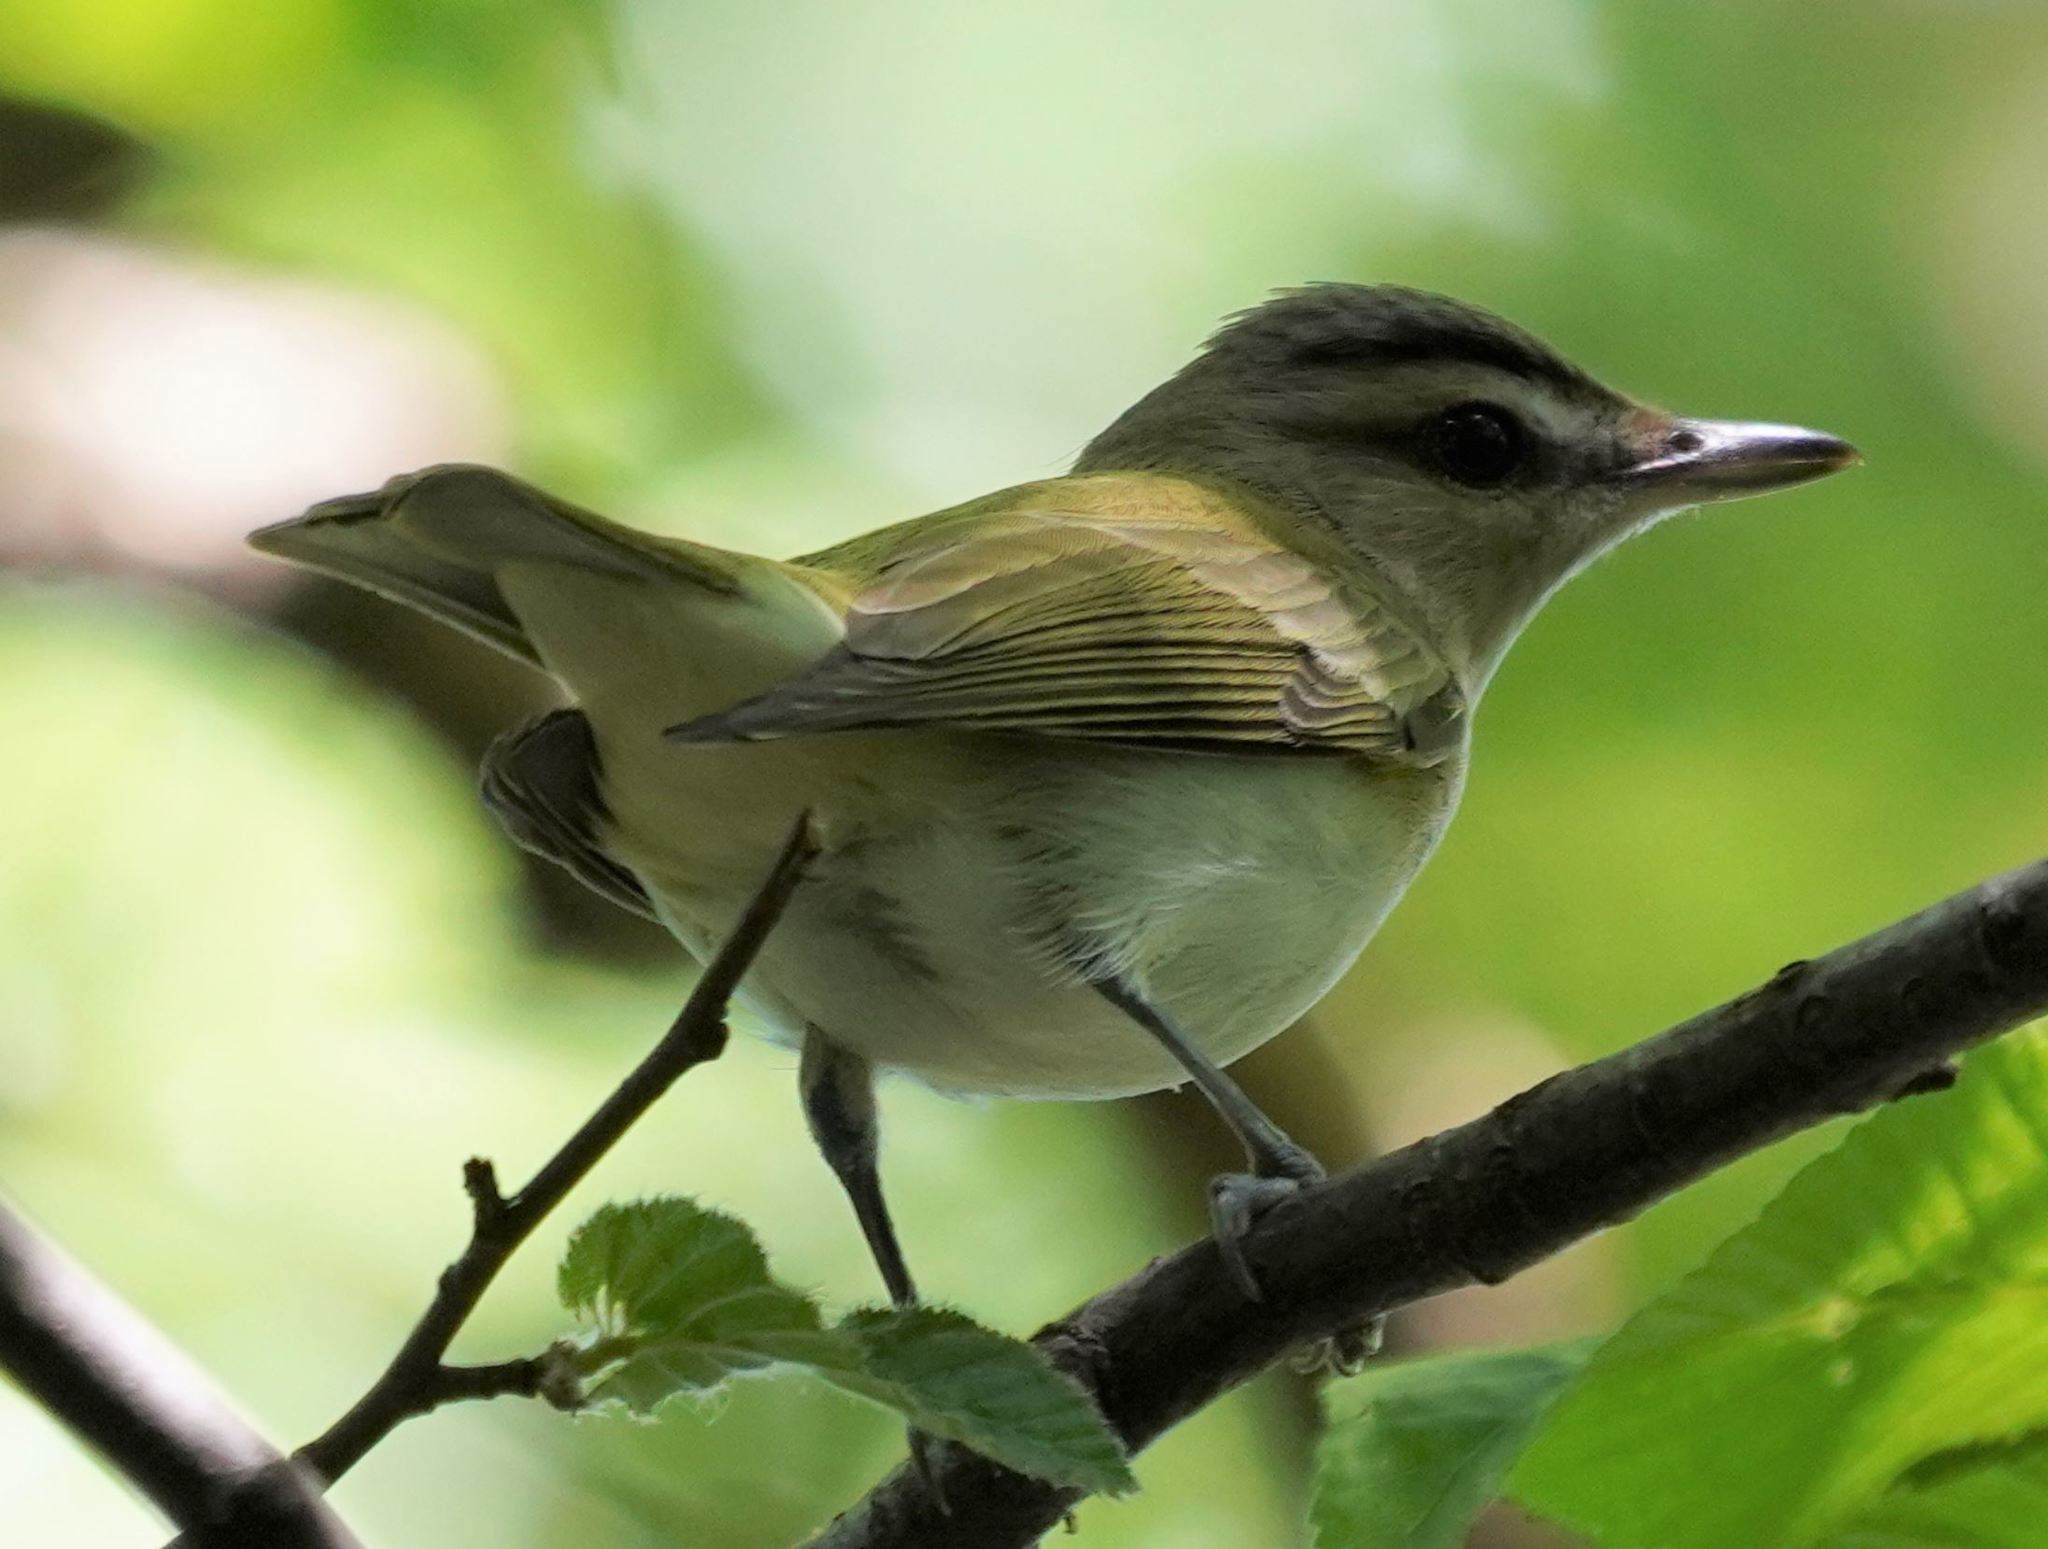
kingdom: Animalia
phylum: Chordata
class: Aves
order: Passeriformes
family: Vireonidae
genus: Vireo
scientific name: Vireo olivaceus
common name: Red-eyed vireo
